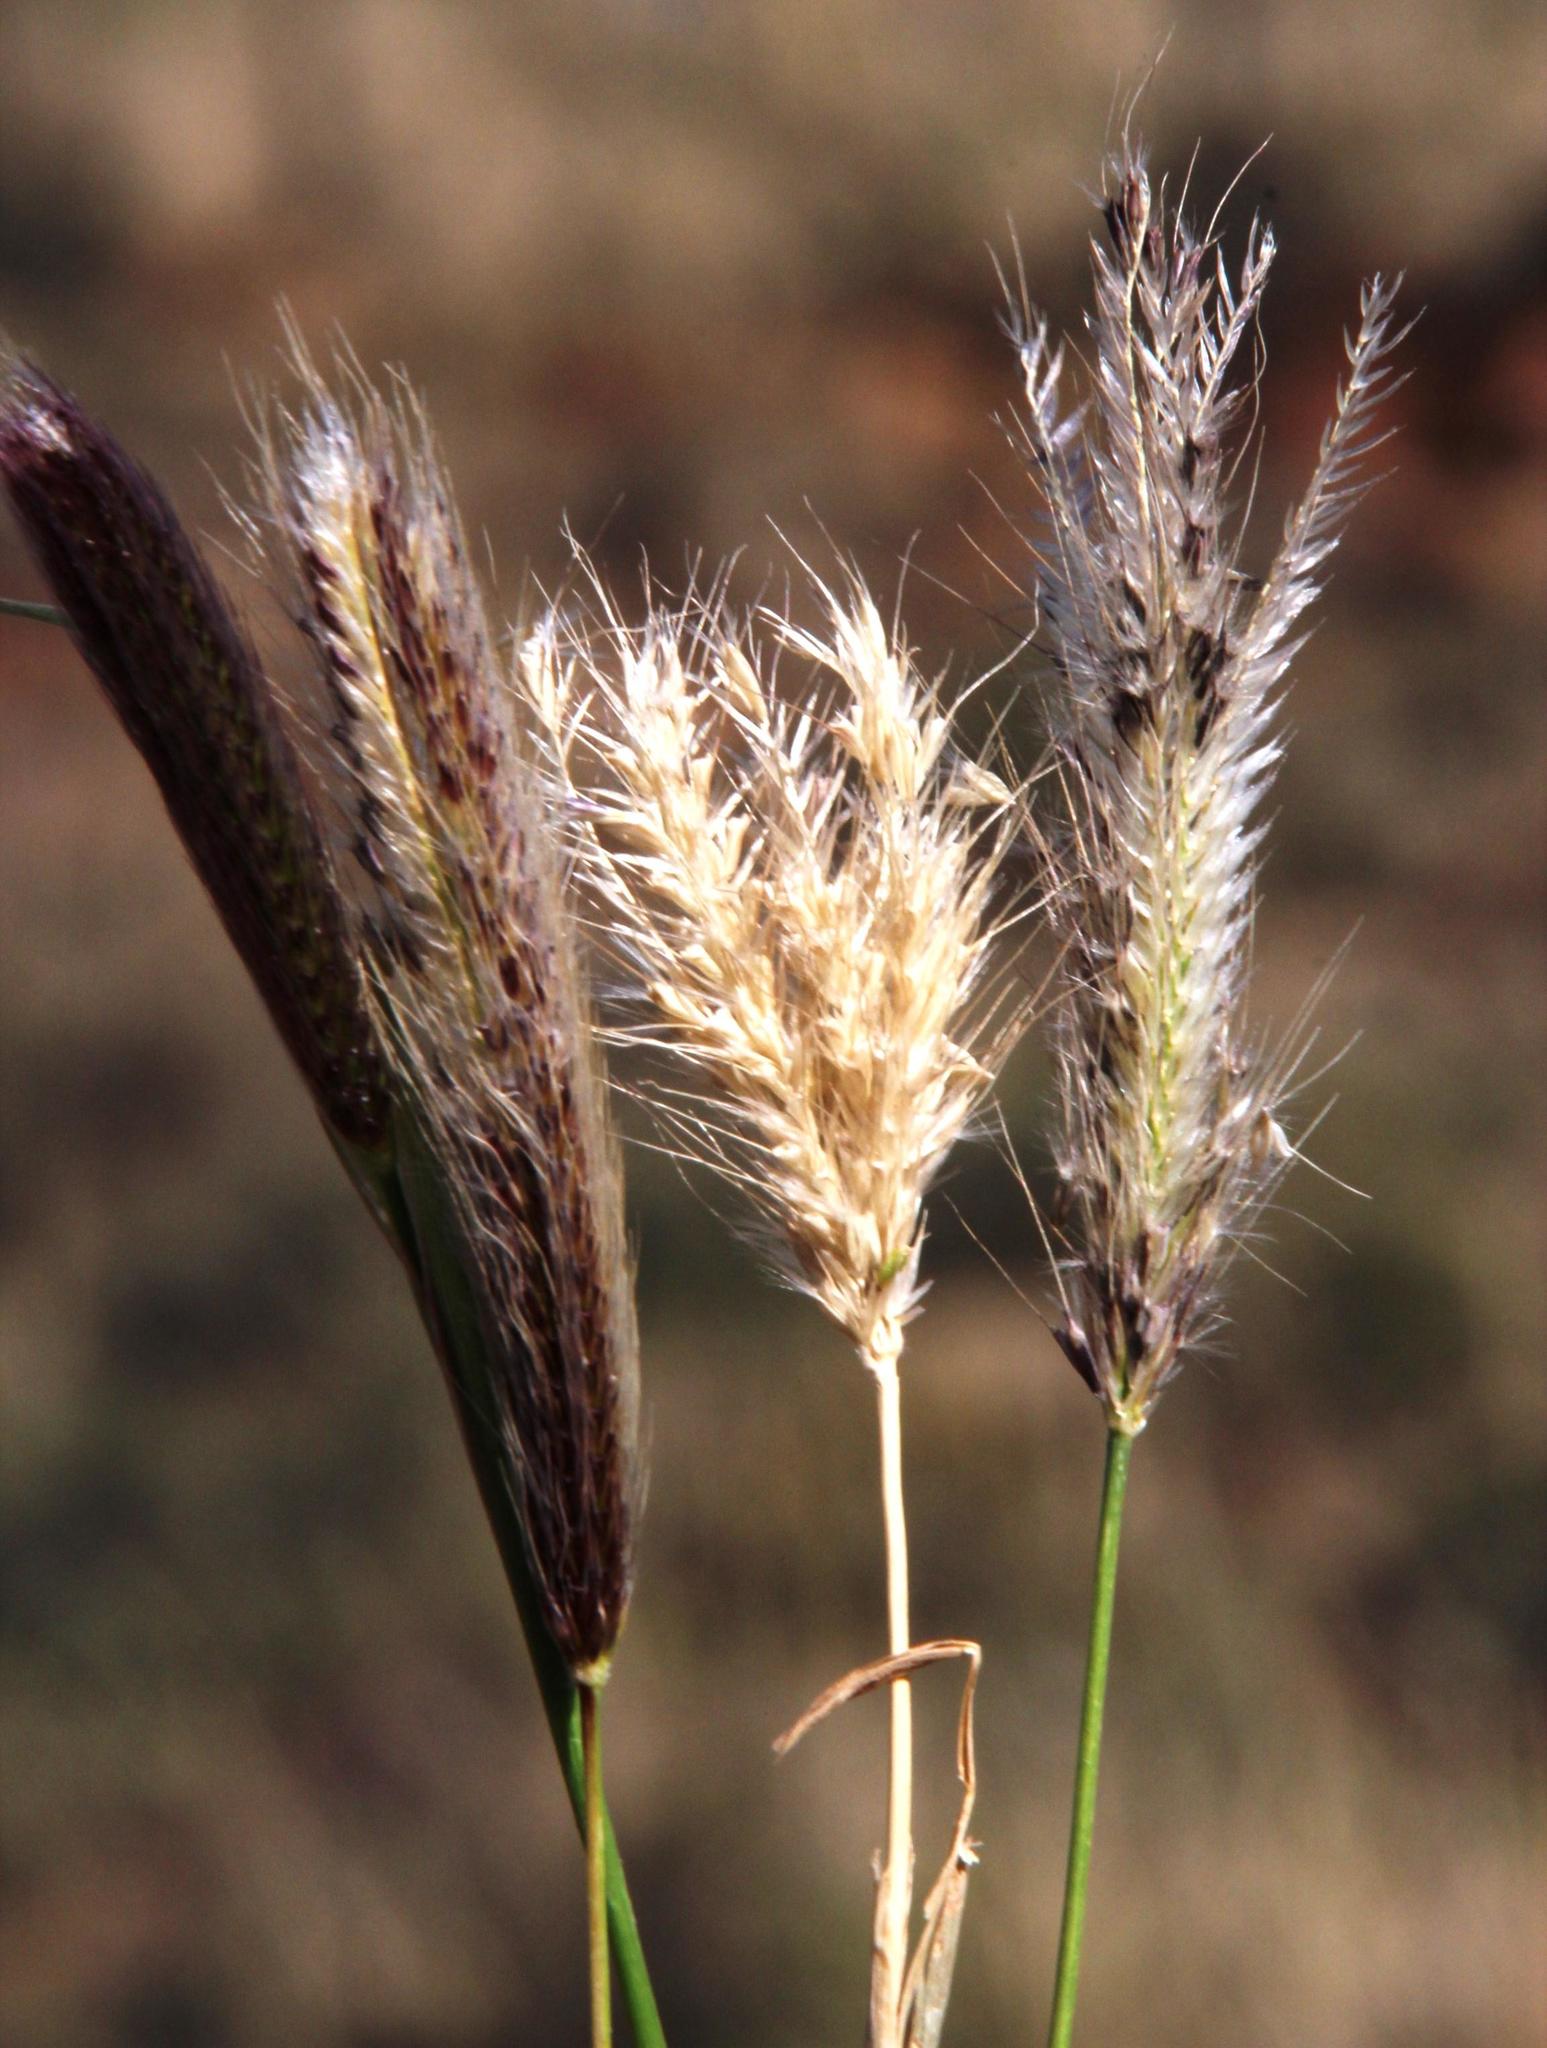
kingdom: Plantae
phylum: Tracheophyta
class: Liliopsida
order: Poales
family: Poaceae
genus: Chloris
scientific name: Chloris virgata
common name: Feathery rhodes-grass
